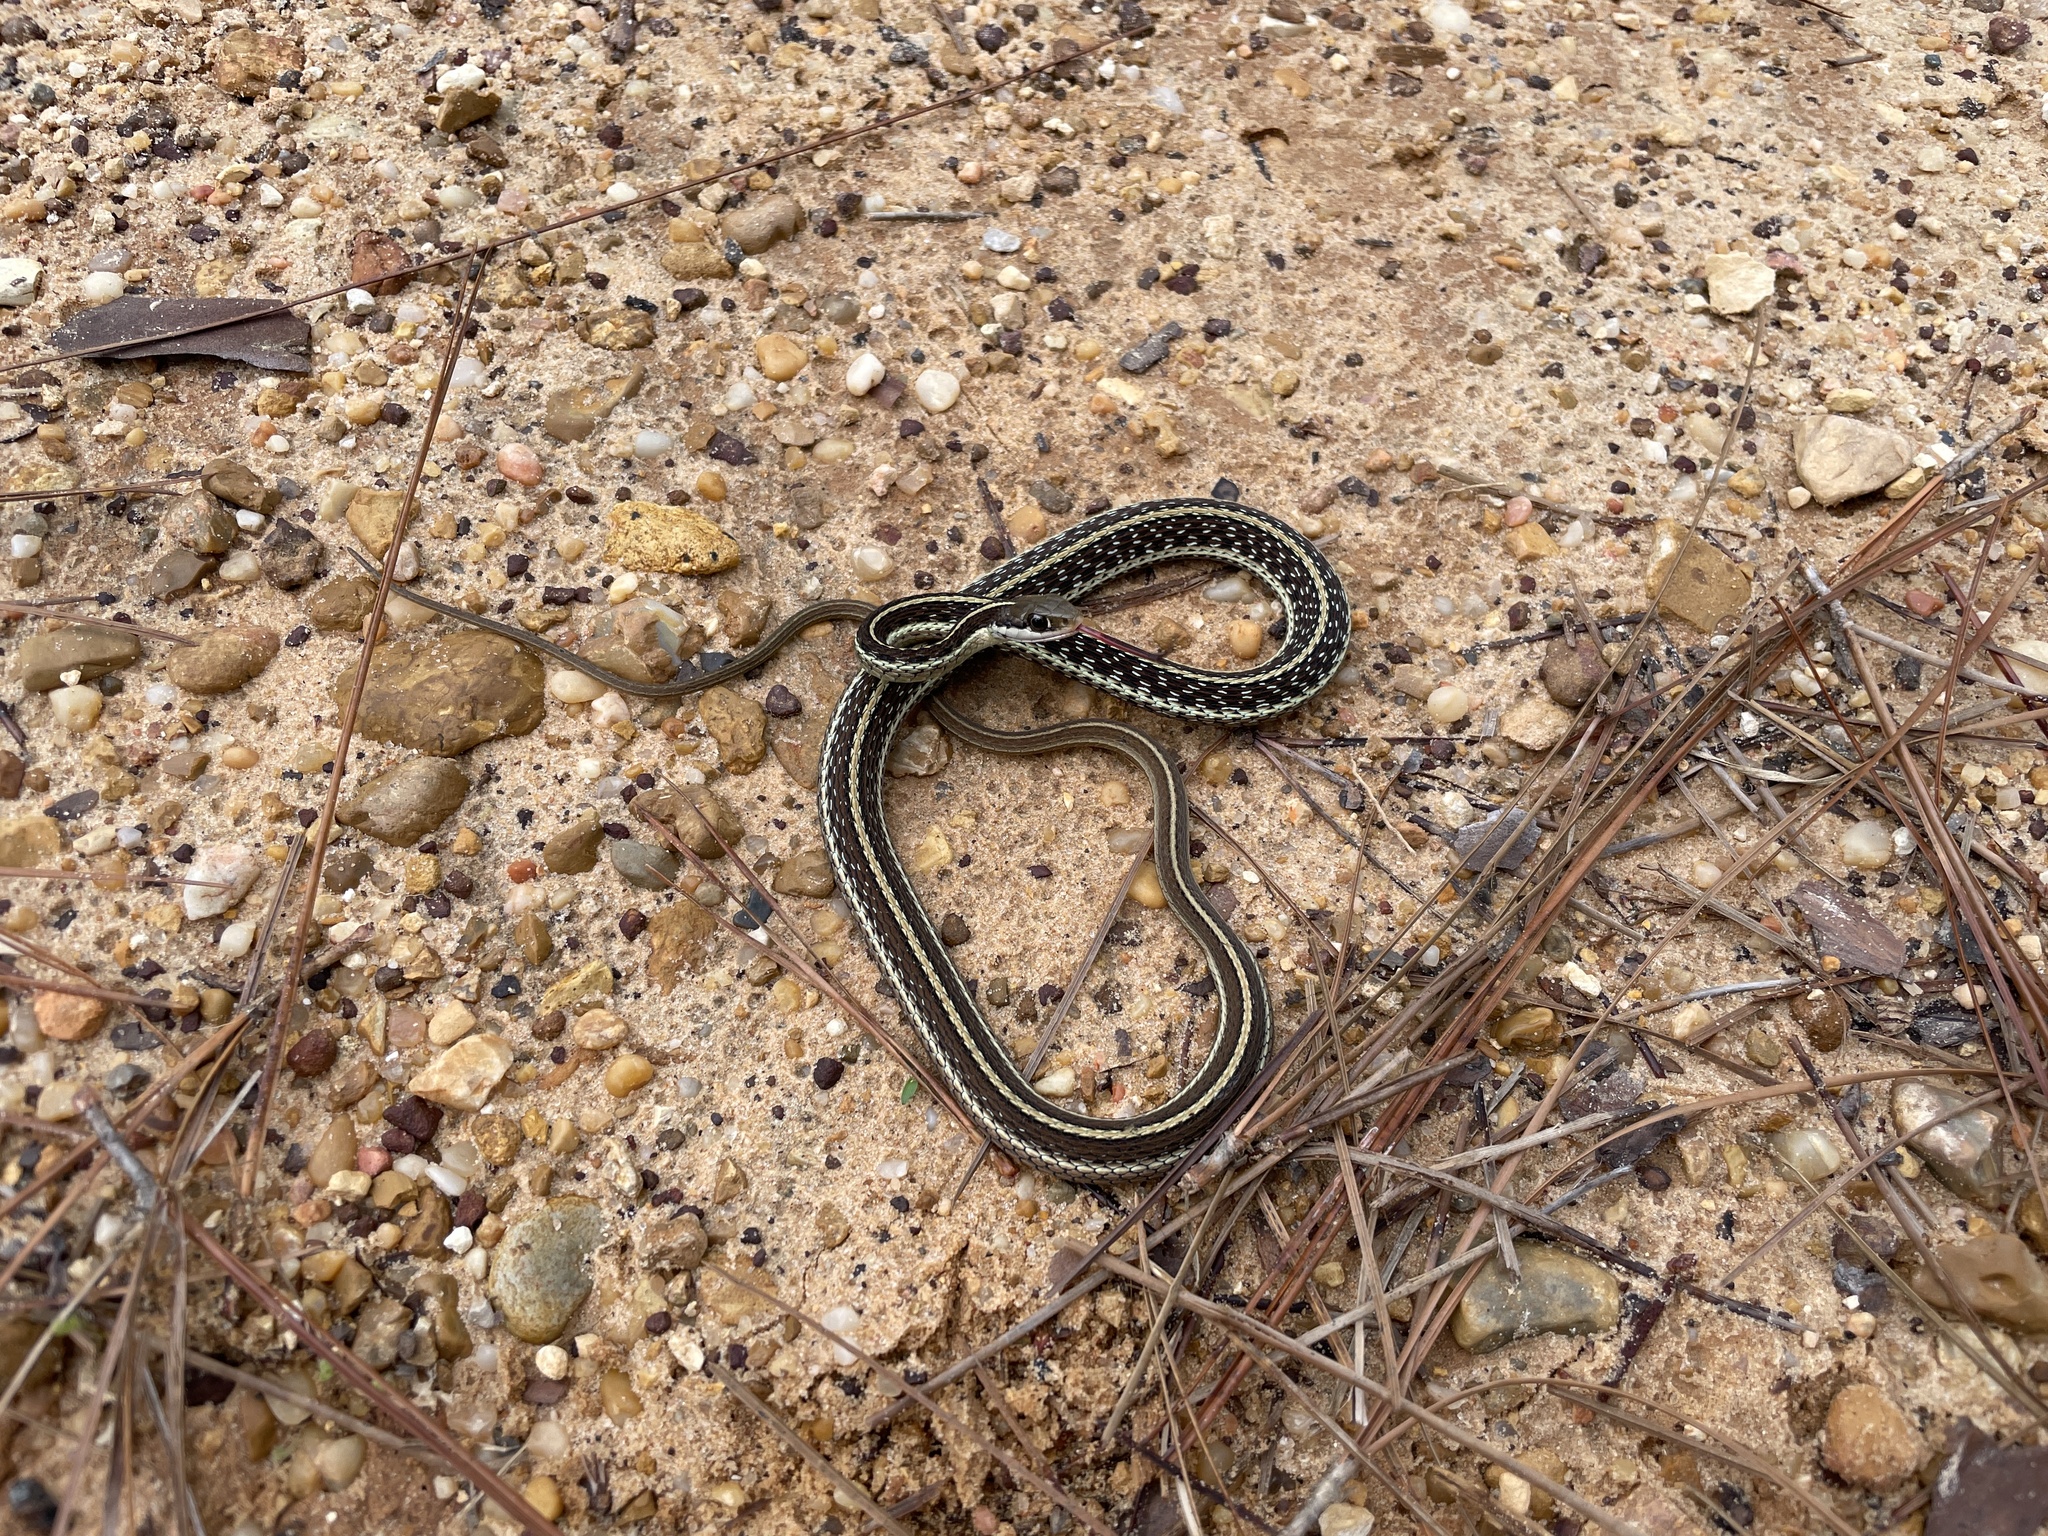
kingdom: Animalia
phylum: Chordata
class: Squamata
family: Colubridae
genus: Thamnophis
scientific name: Thamnophis saurita
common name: Eastern ribbonsnake
